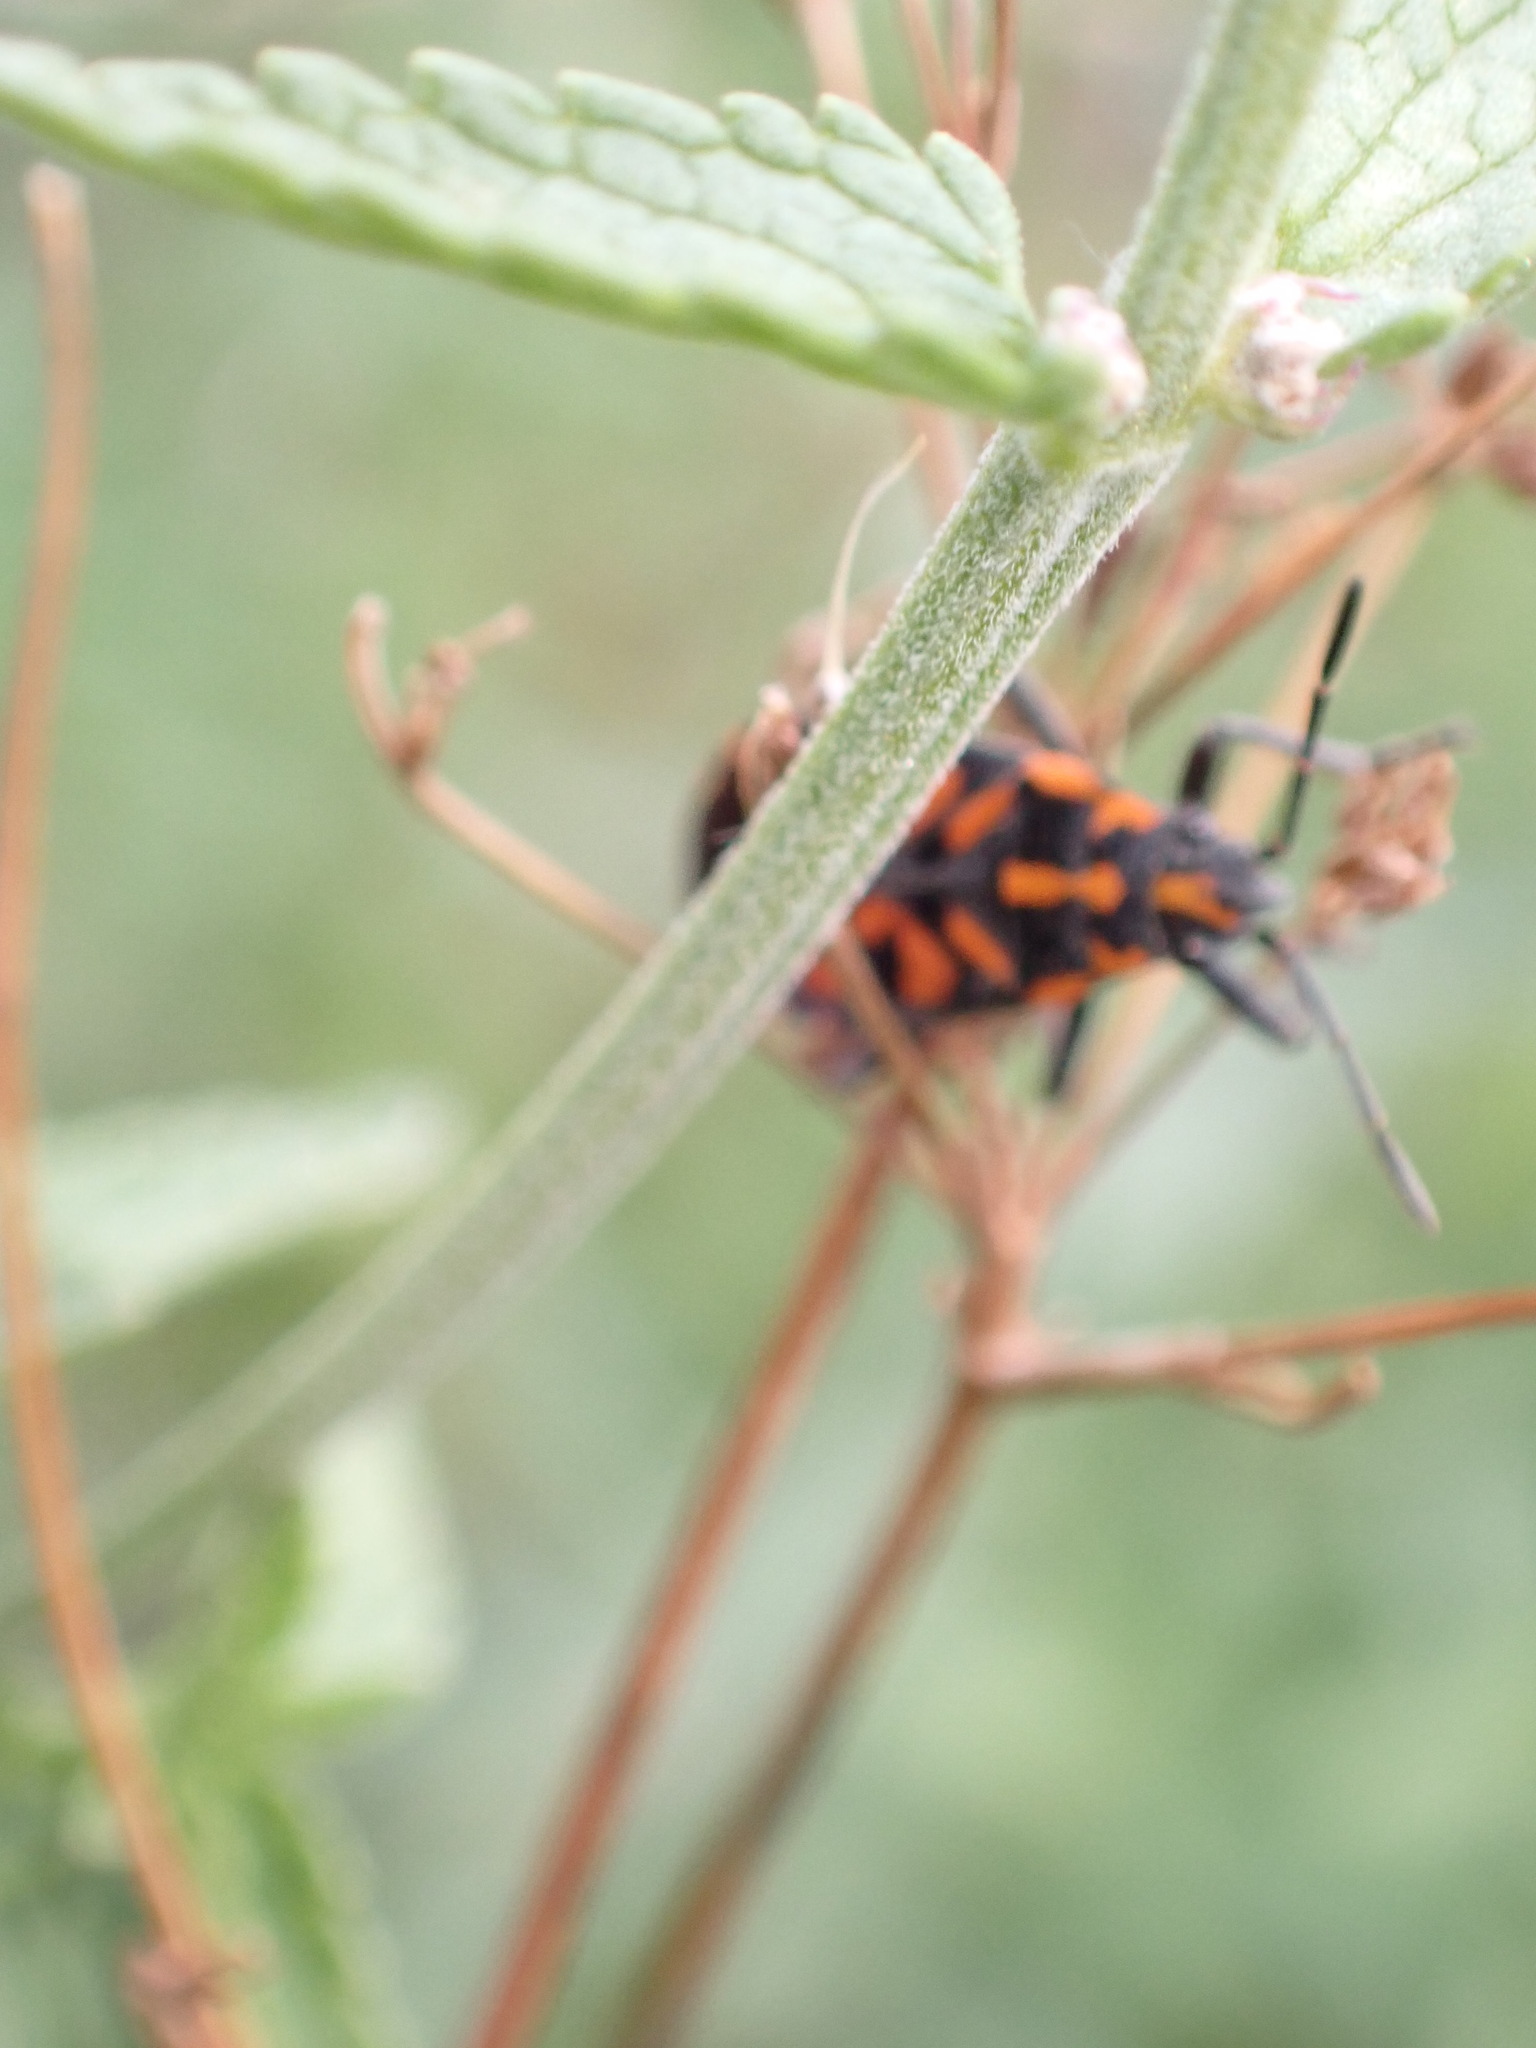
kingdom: Animalia
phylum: Arthropoda
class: Insecta
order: Hemiptera
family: Lygaeidae
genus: Spilostethus
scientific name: Spilostethus saxatilis
